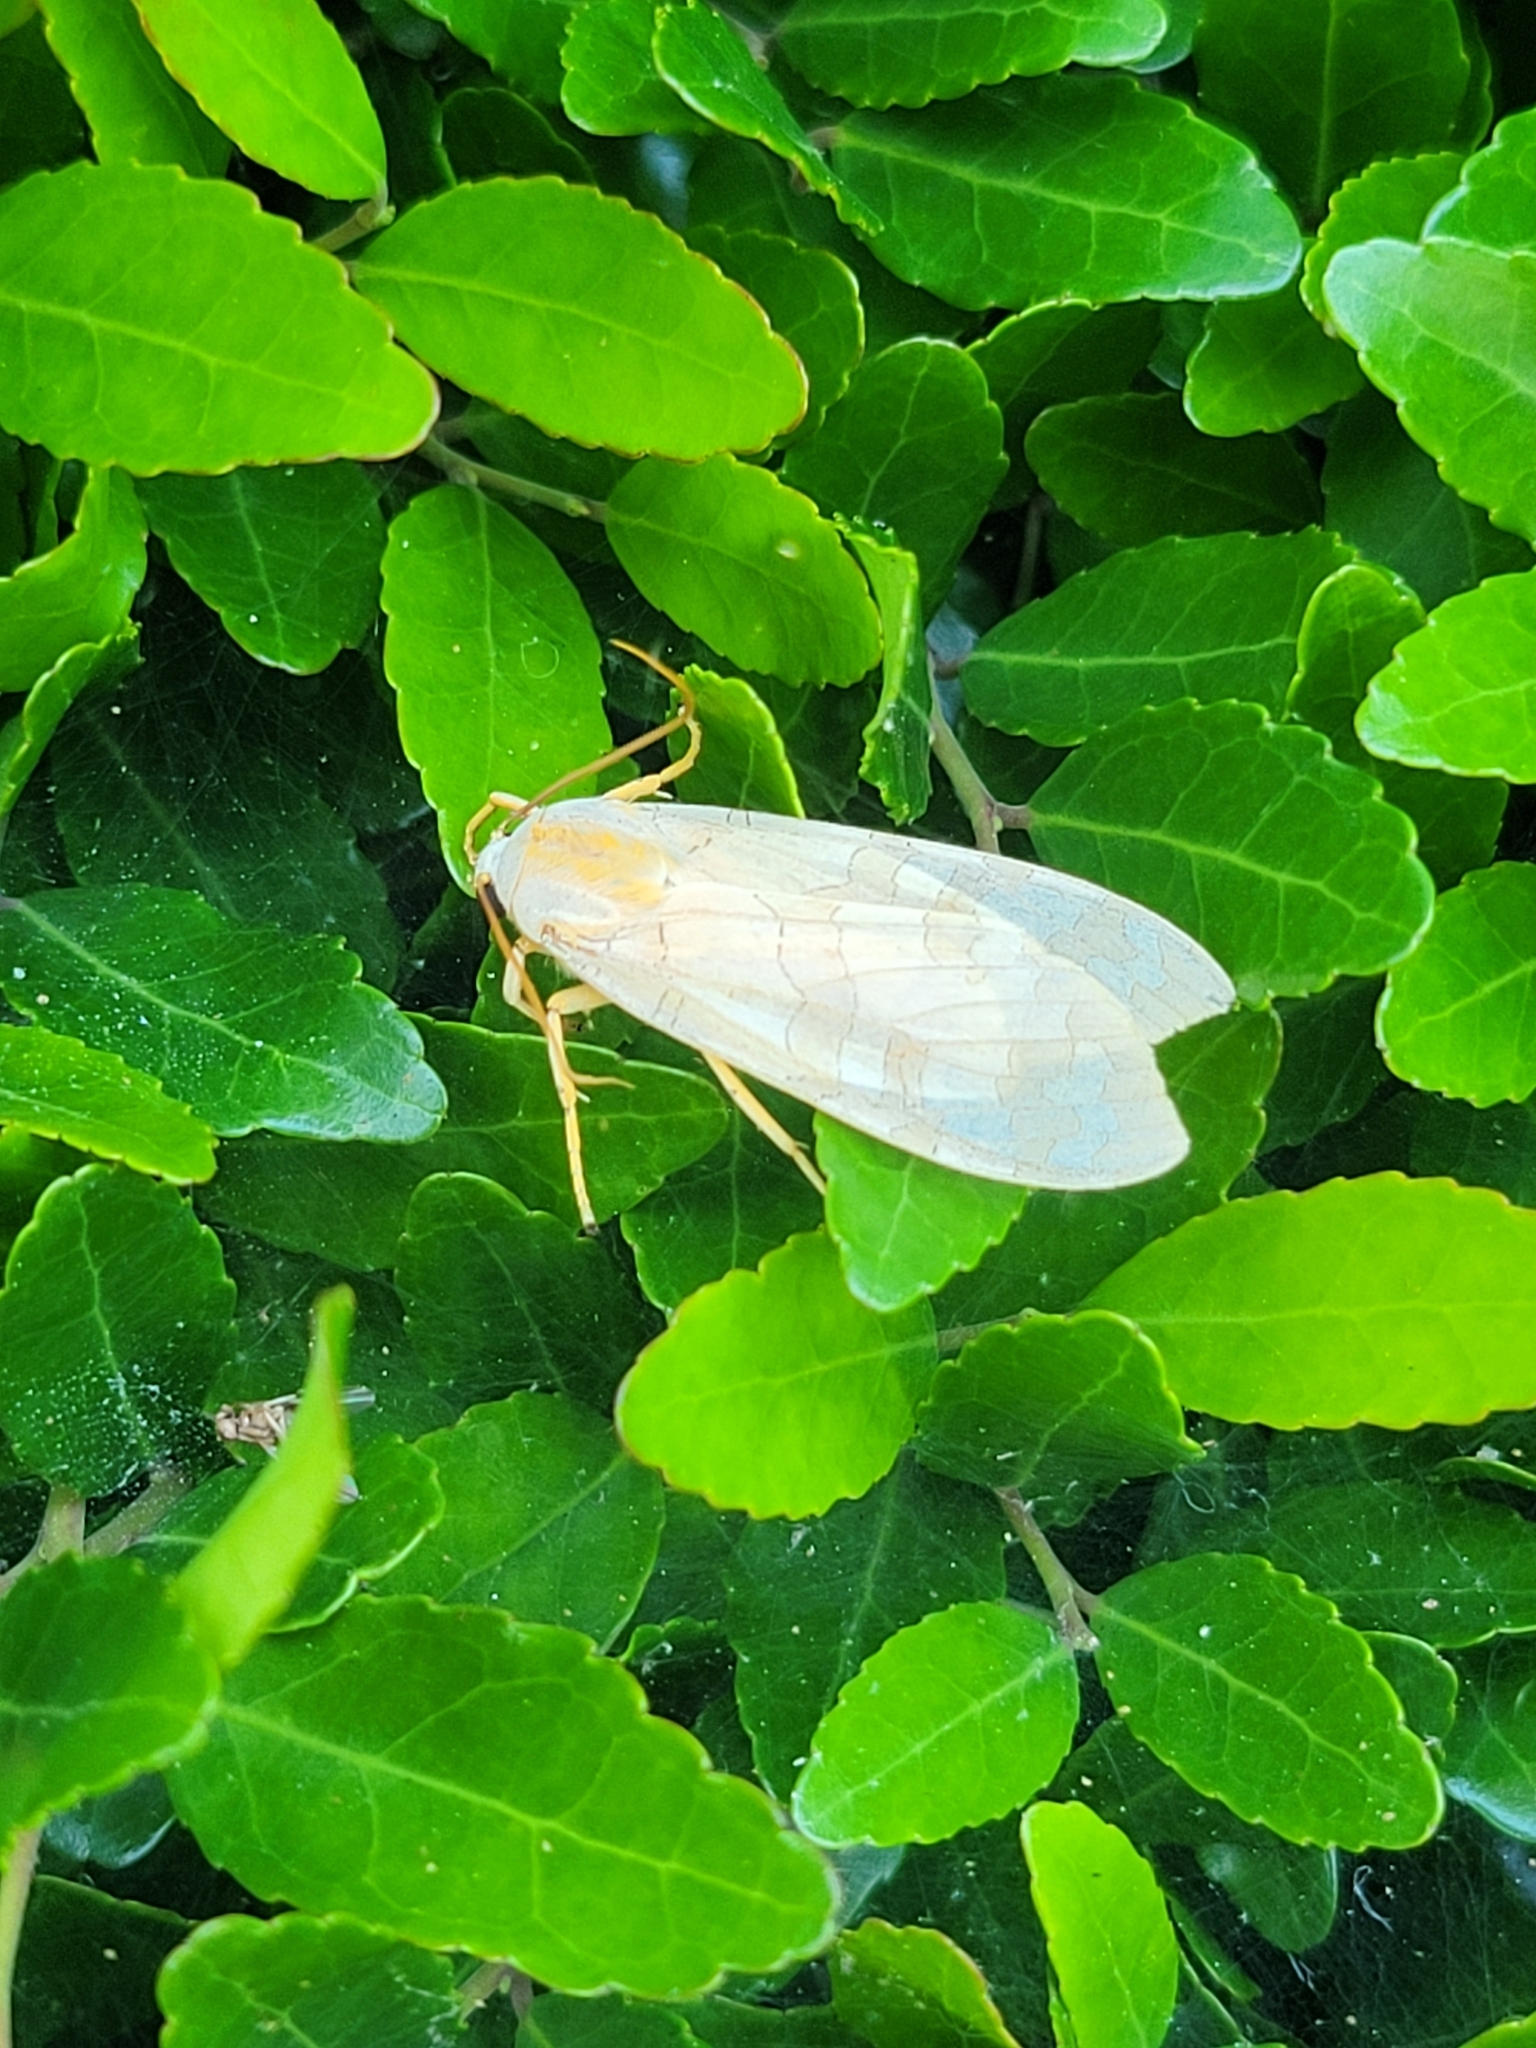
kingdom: Animalia
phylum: Arthropoda
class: Insecta
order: Lepidoptera
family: Erebidae
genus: Halysidota
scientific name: Halysidota
